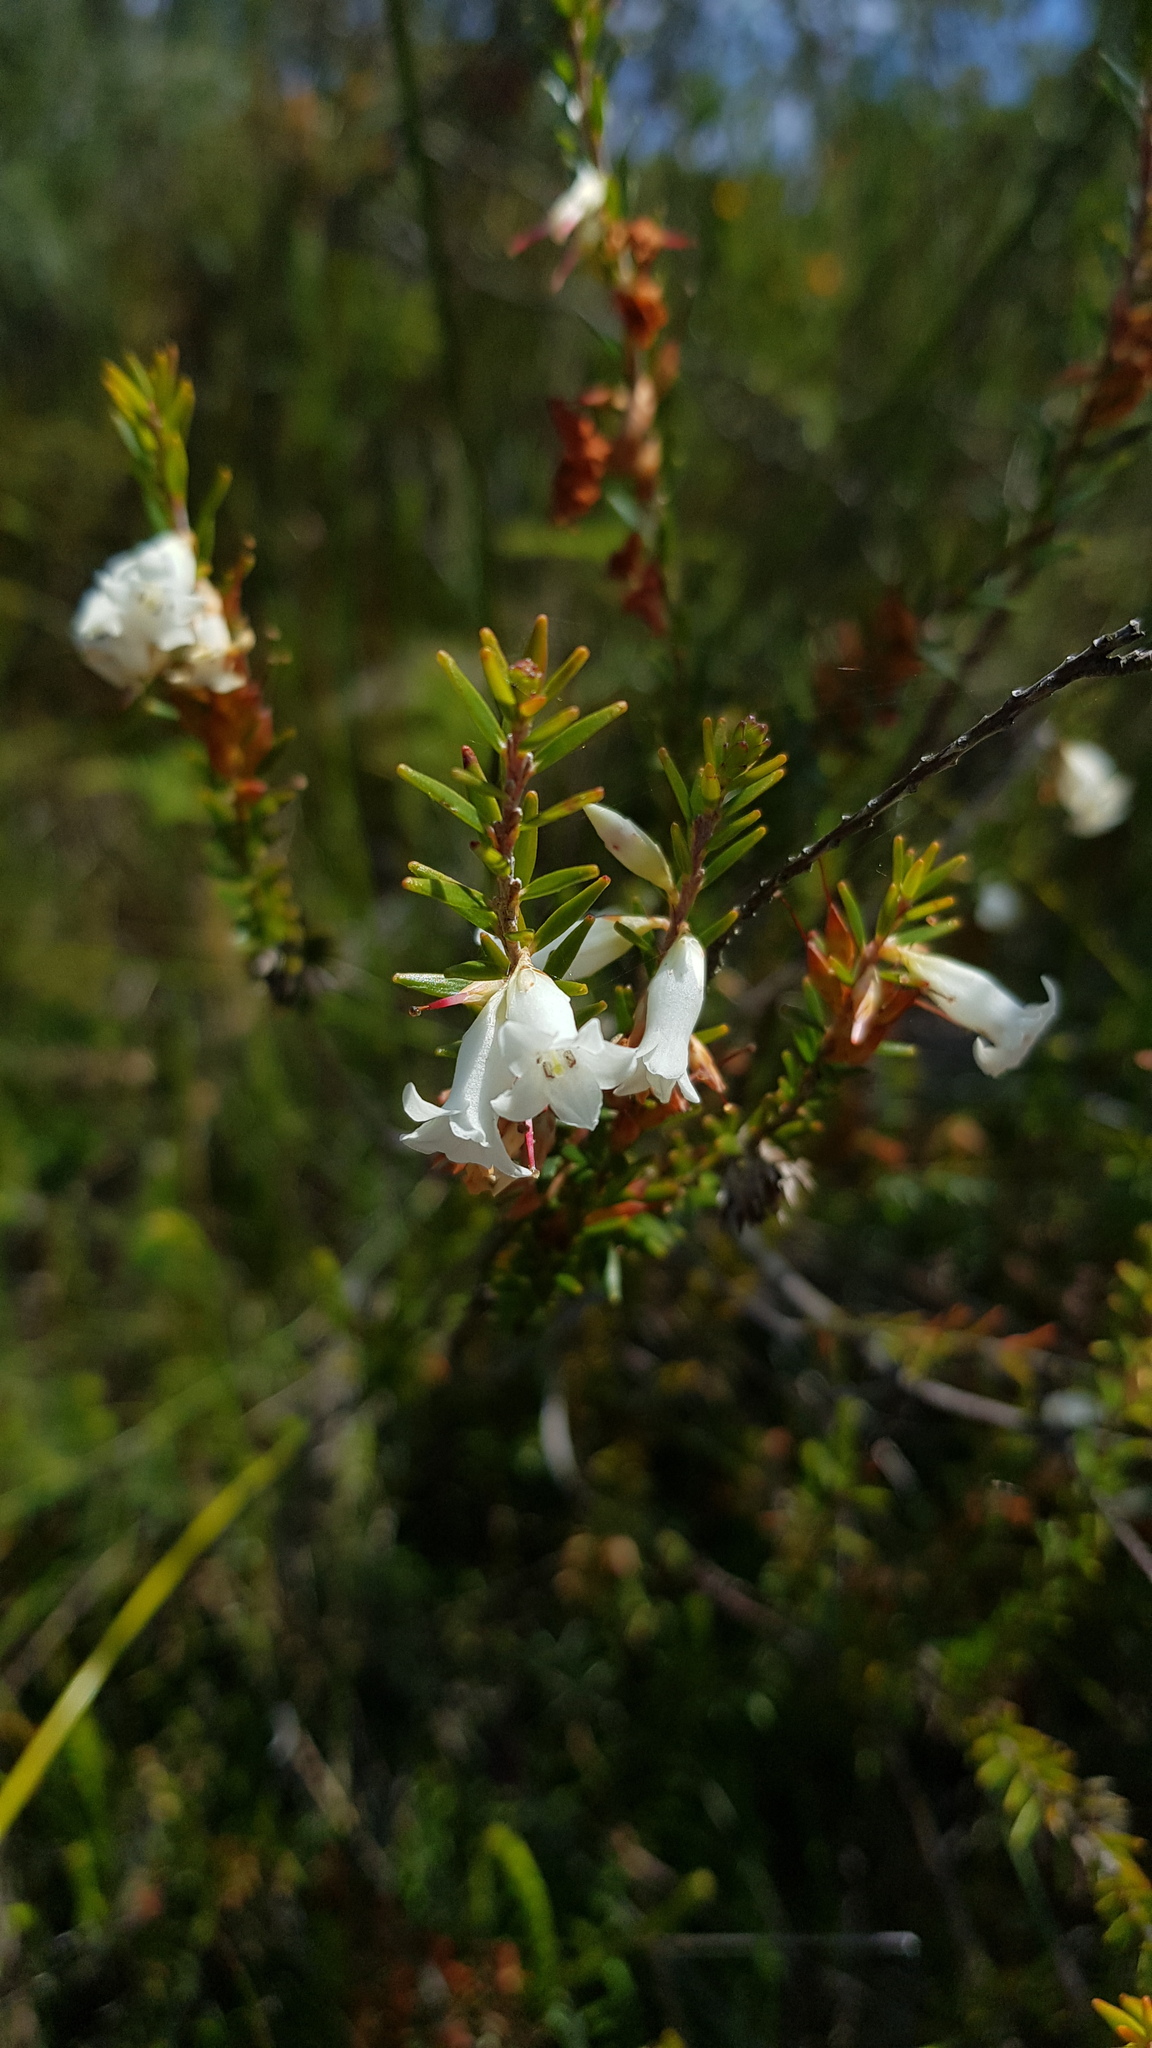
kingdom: Plantae
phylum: Tracheophyta
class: Magnoliopsida
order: Ericales
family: Ericaceae
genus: Epacris
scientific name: Epacris obtusifolia
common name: Blunt-leaf australian-heath
